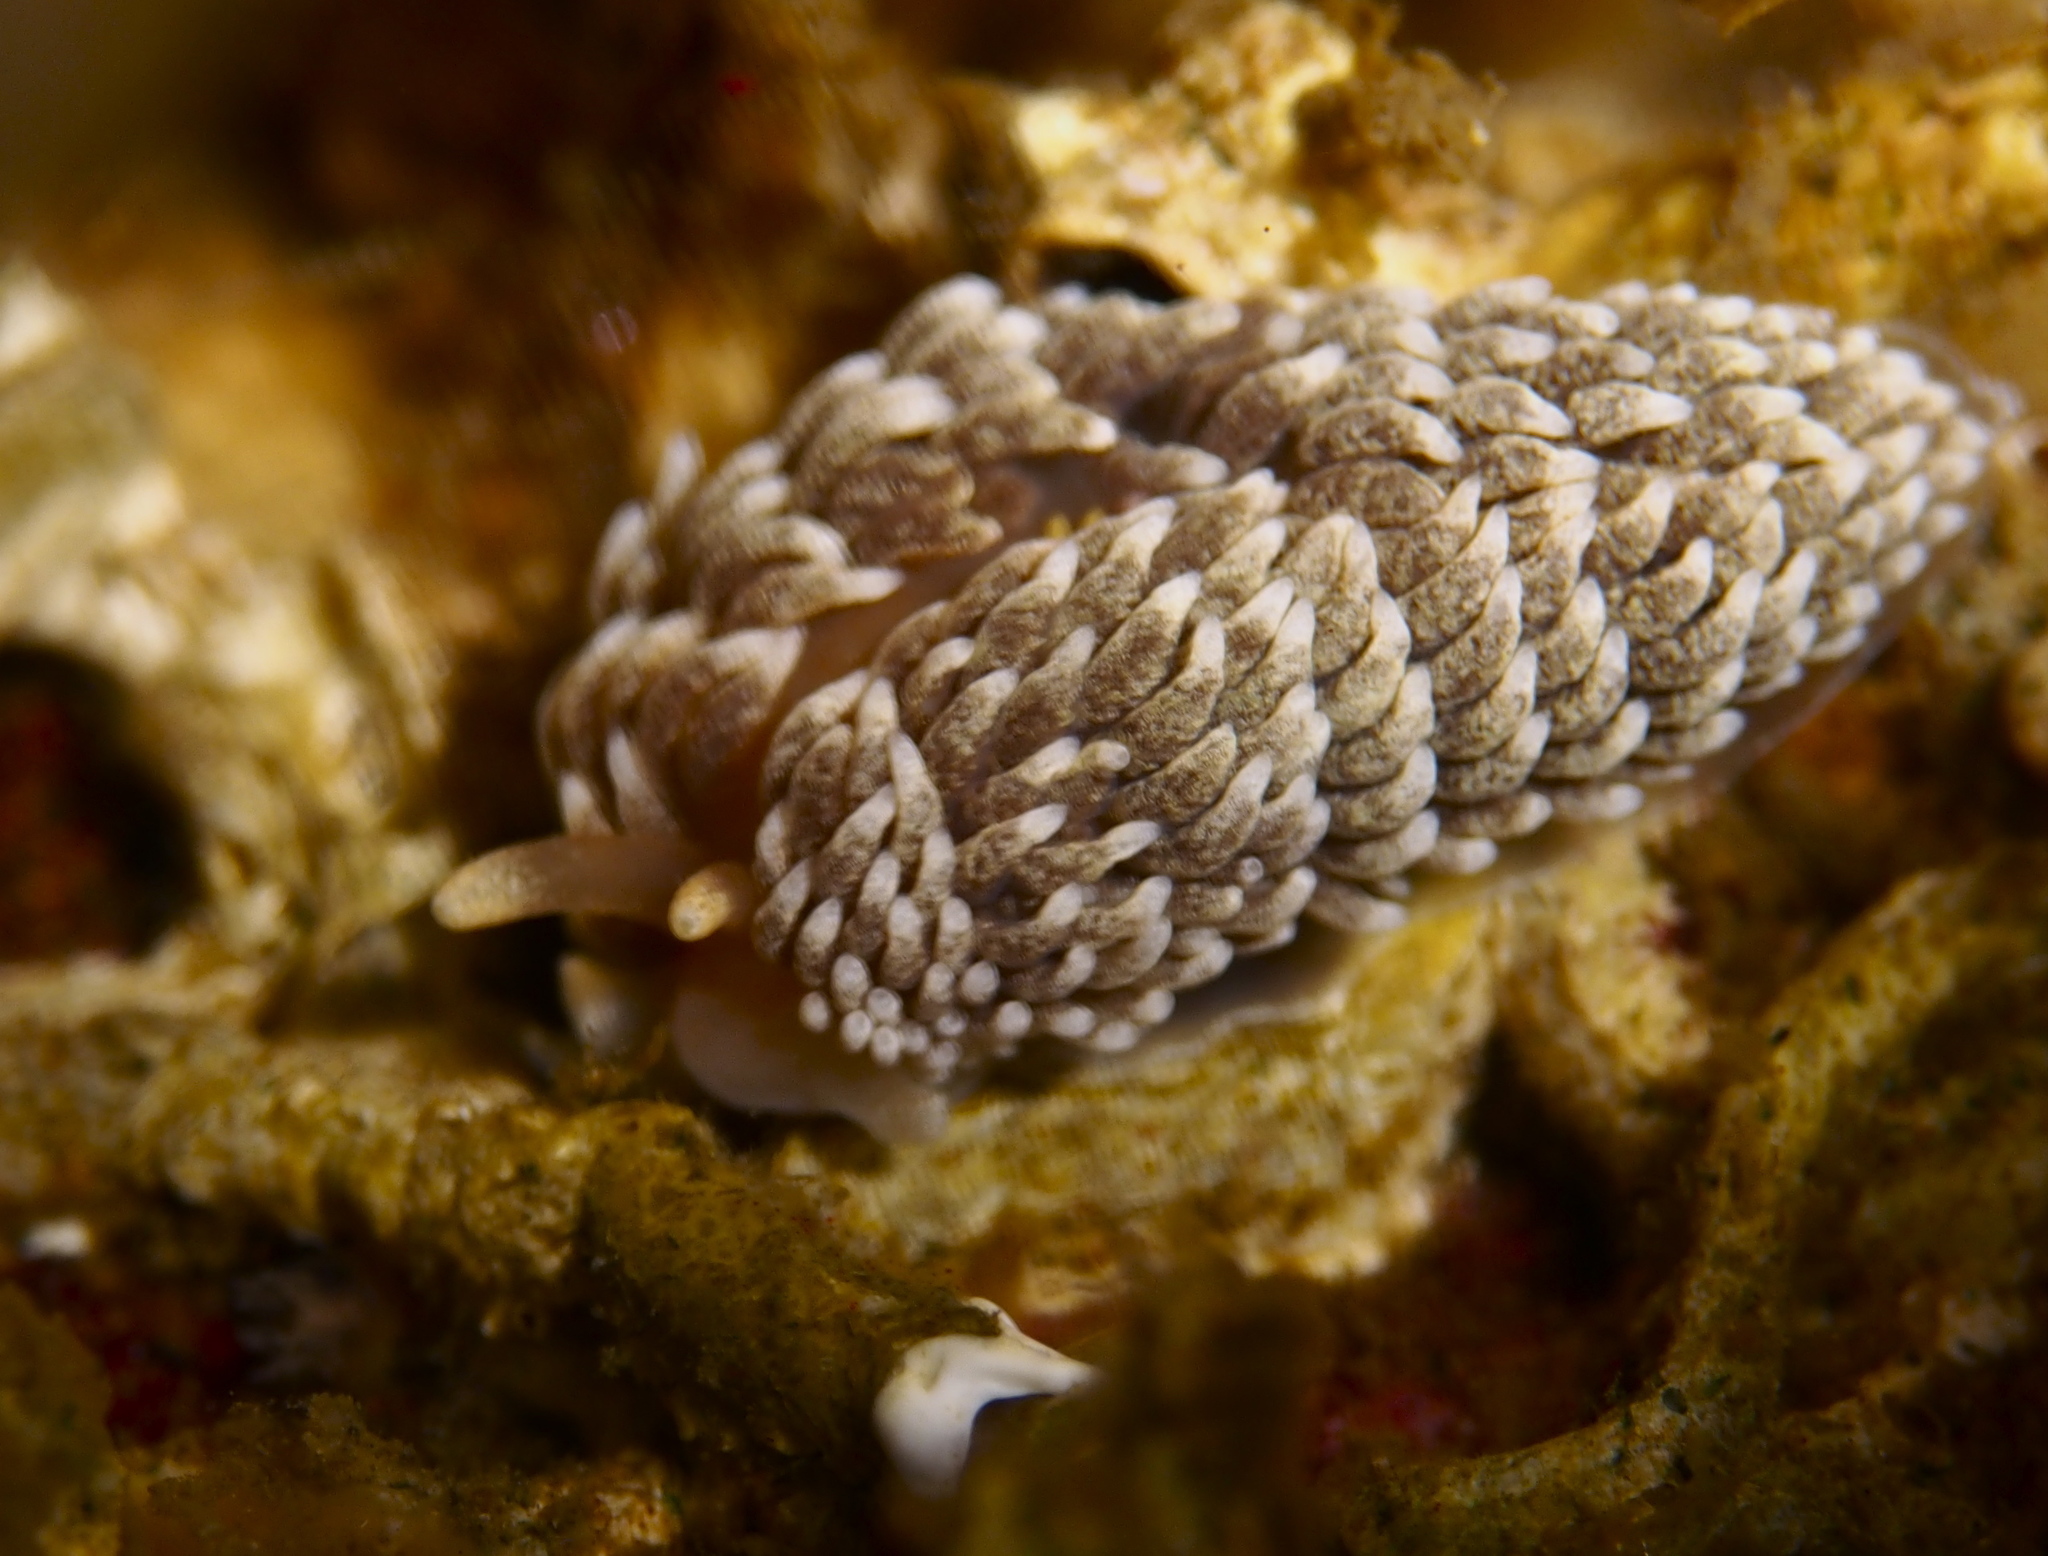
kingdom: Animalia
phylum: Mollusca
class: Gastropoda
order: Nudibranchia
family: Aeolidiidae
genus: Aeolidiella
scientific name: Aeolidiella glauca
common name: Orange-brown aeolid
